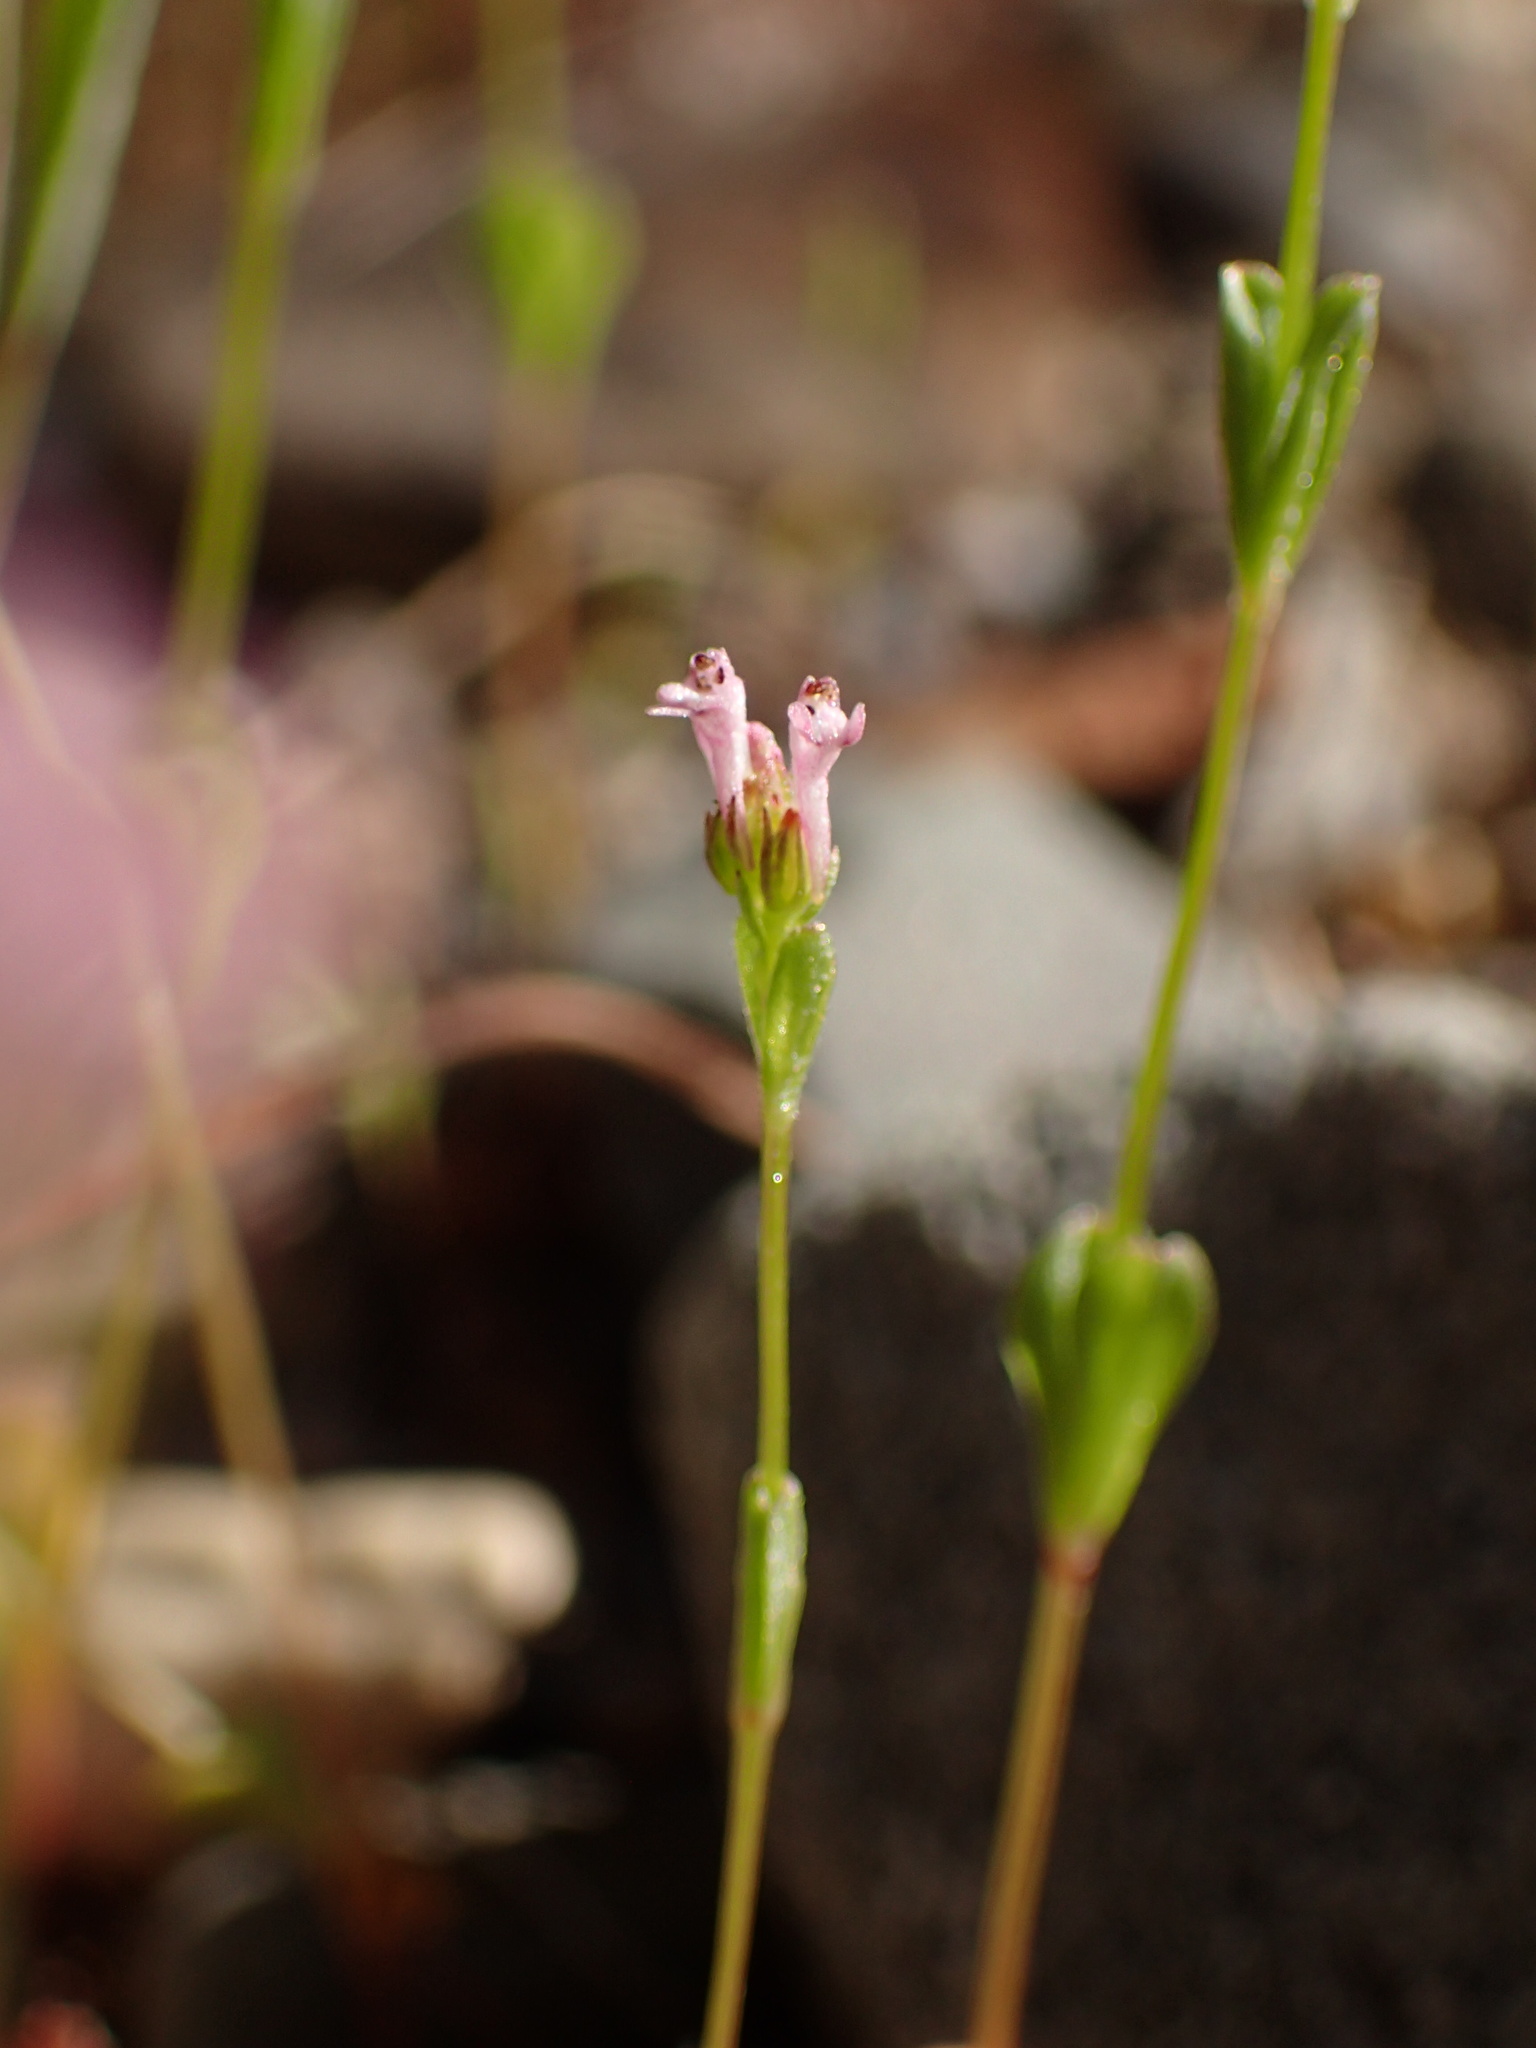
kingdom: Plantae
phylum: Tracheophyta
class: Magnoliopsida
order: Dipsacales
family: Caprifoliaceae
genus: Plectritis
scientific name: Plectritis ciliosa
